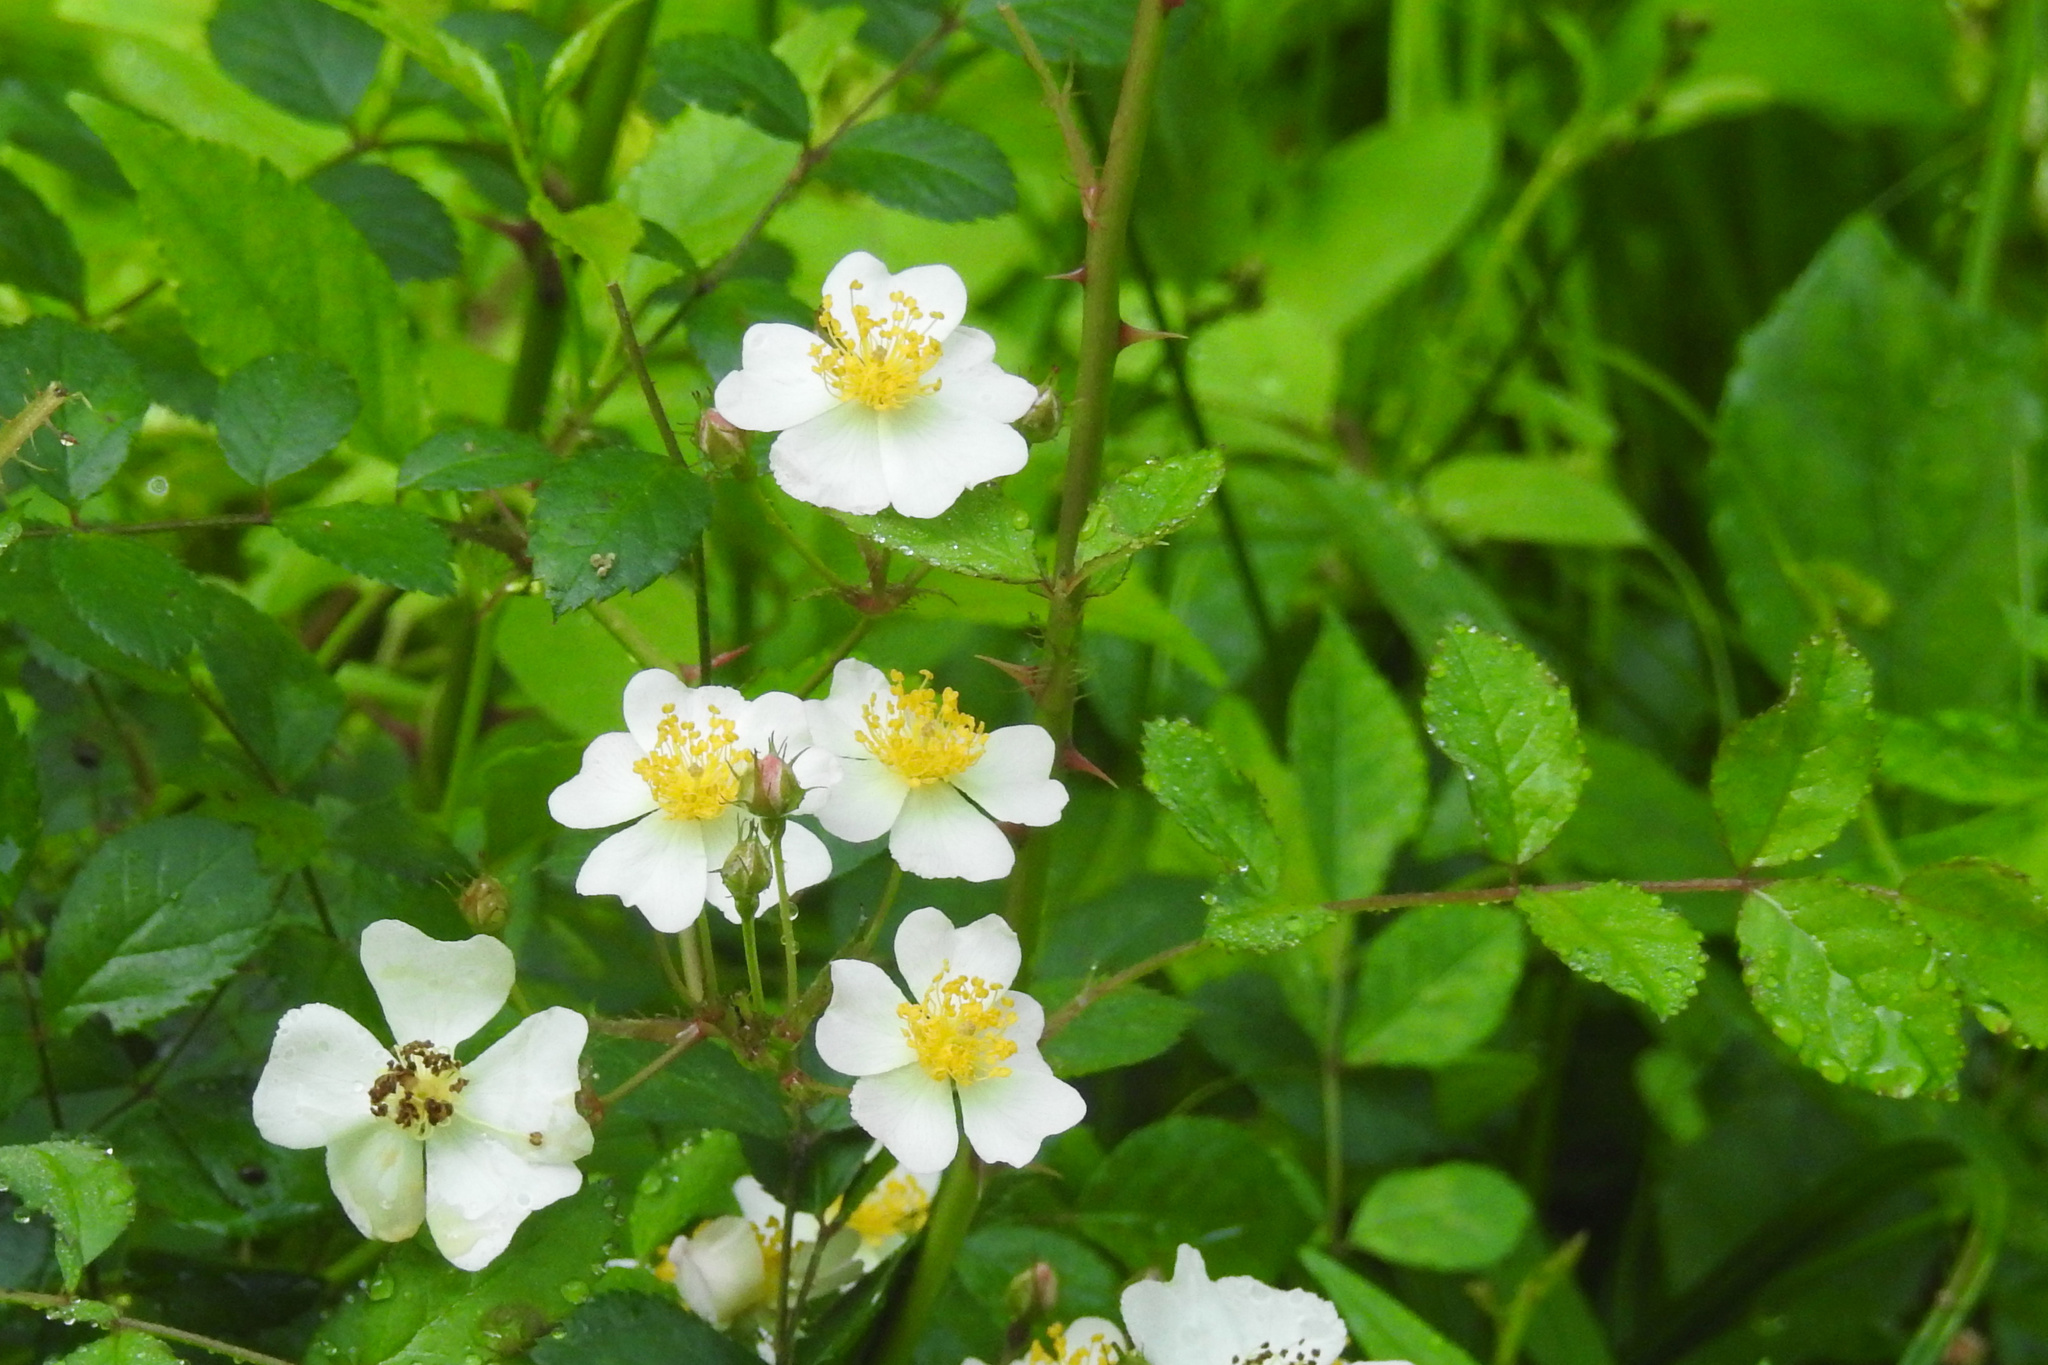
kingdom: Plantae
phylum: Tracheophyta
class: Magnoliopsida
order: Rosales
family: Rosaceae
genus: Rosa
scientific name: Rosa multiflora
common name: Multiflora rose
